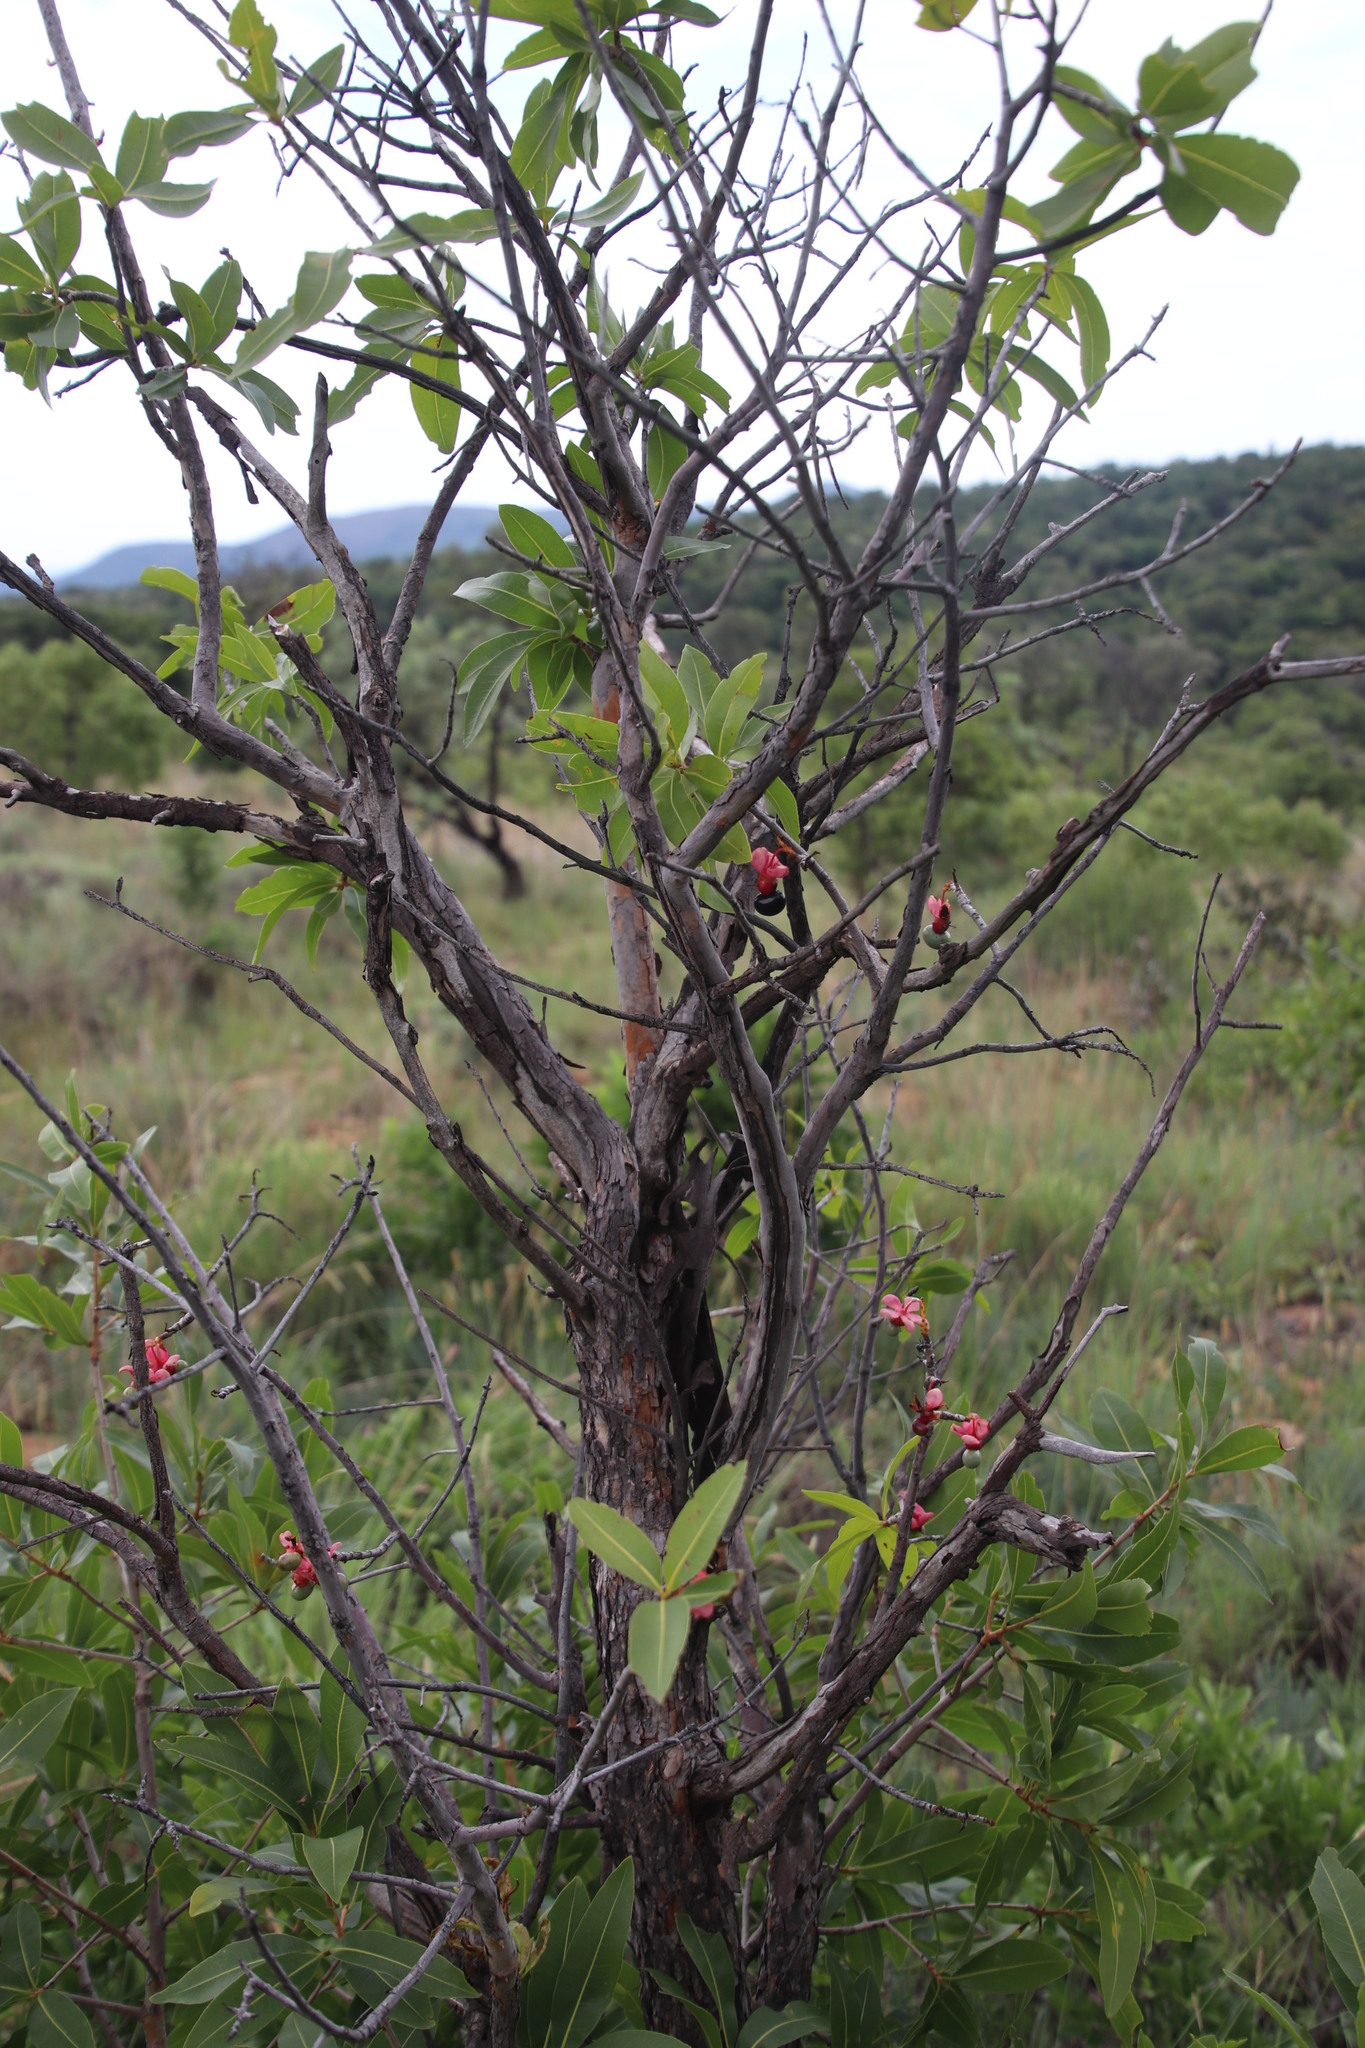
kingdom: Plantae
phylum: Tracheophyta
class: Magnoliopsida
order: Malpighiales
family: Ochnaceae
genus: Ochna
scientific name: Ochna pulchra
